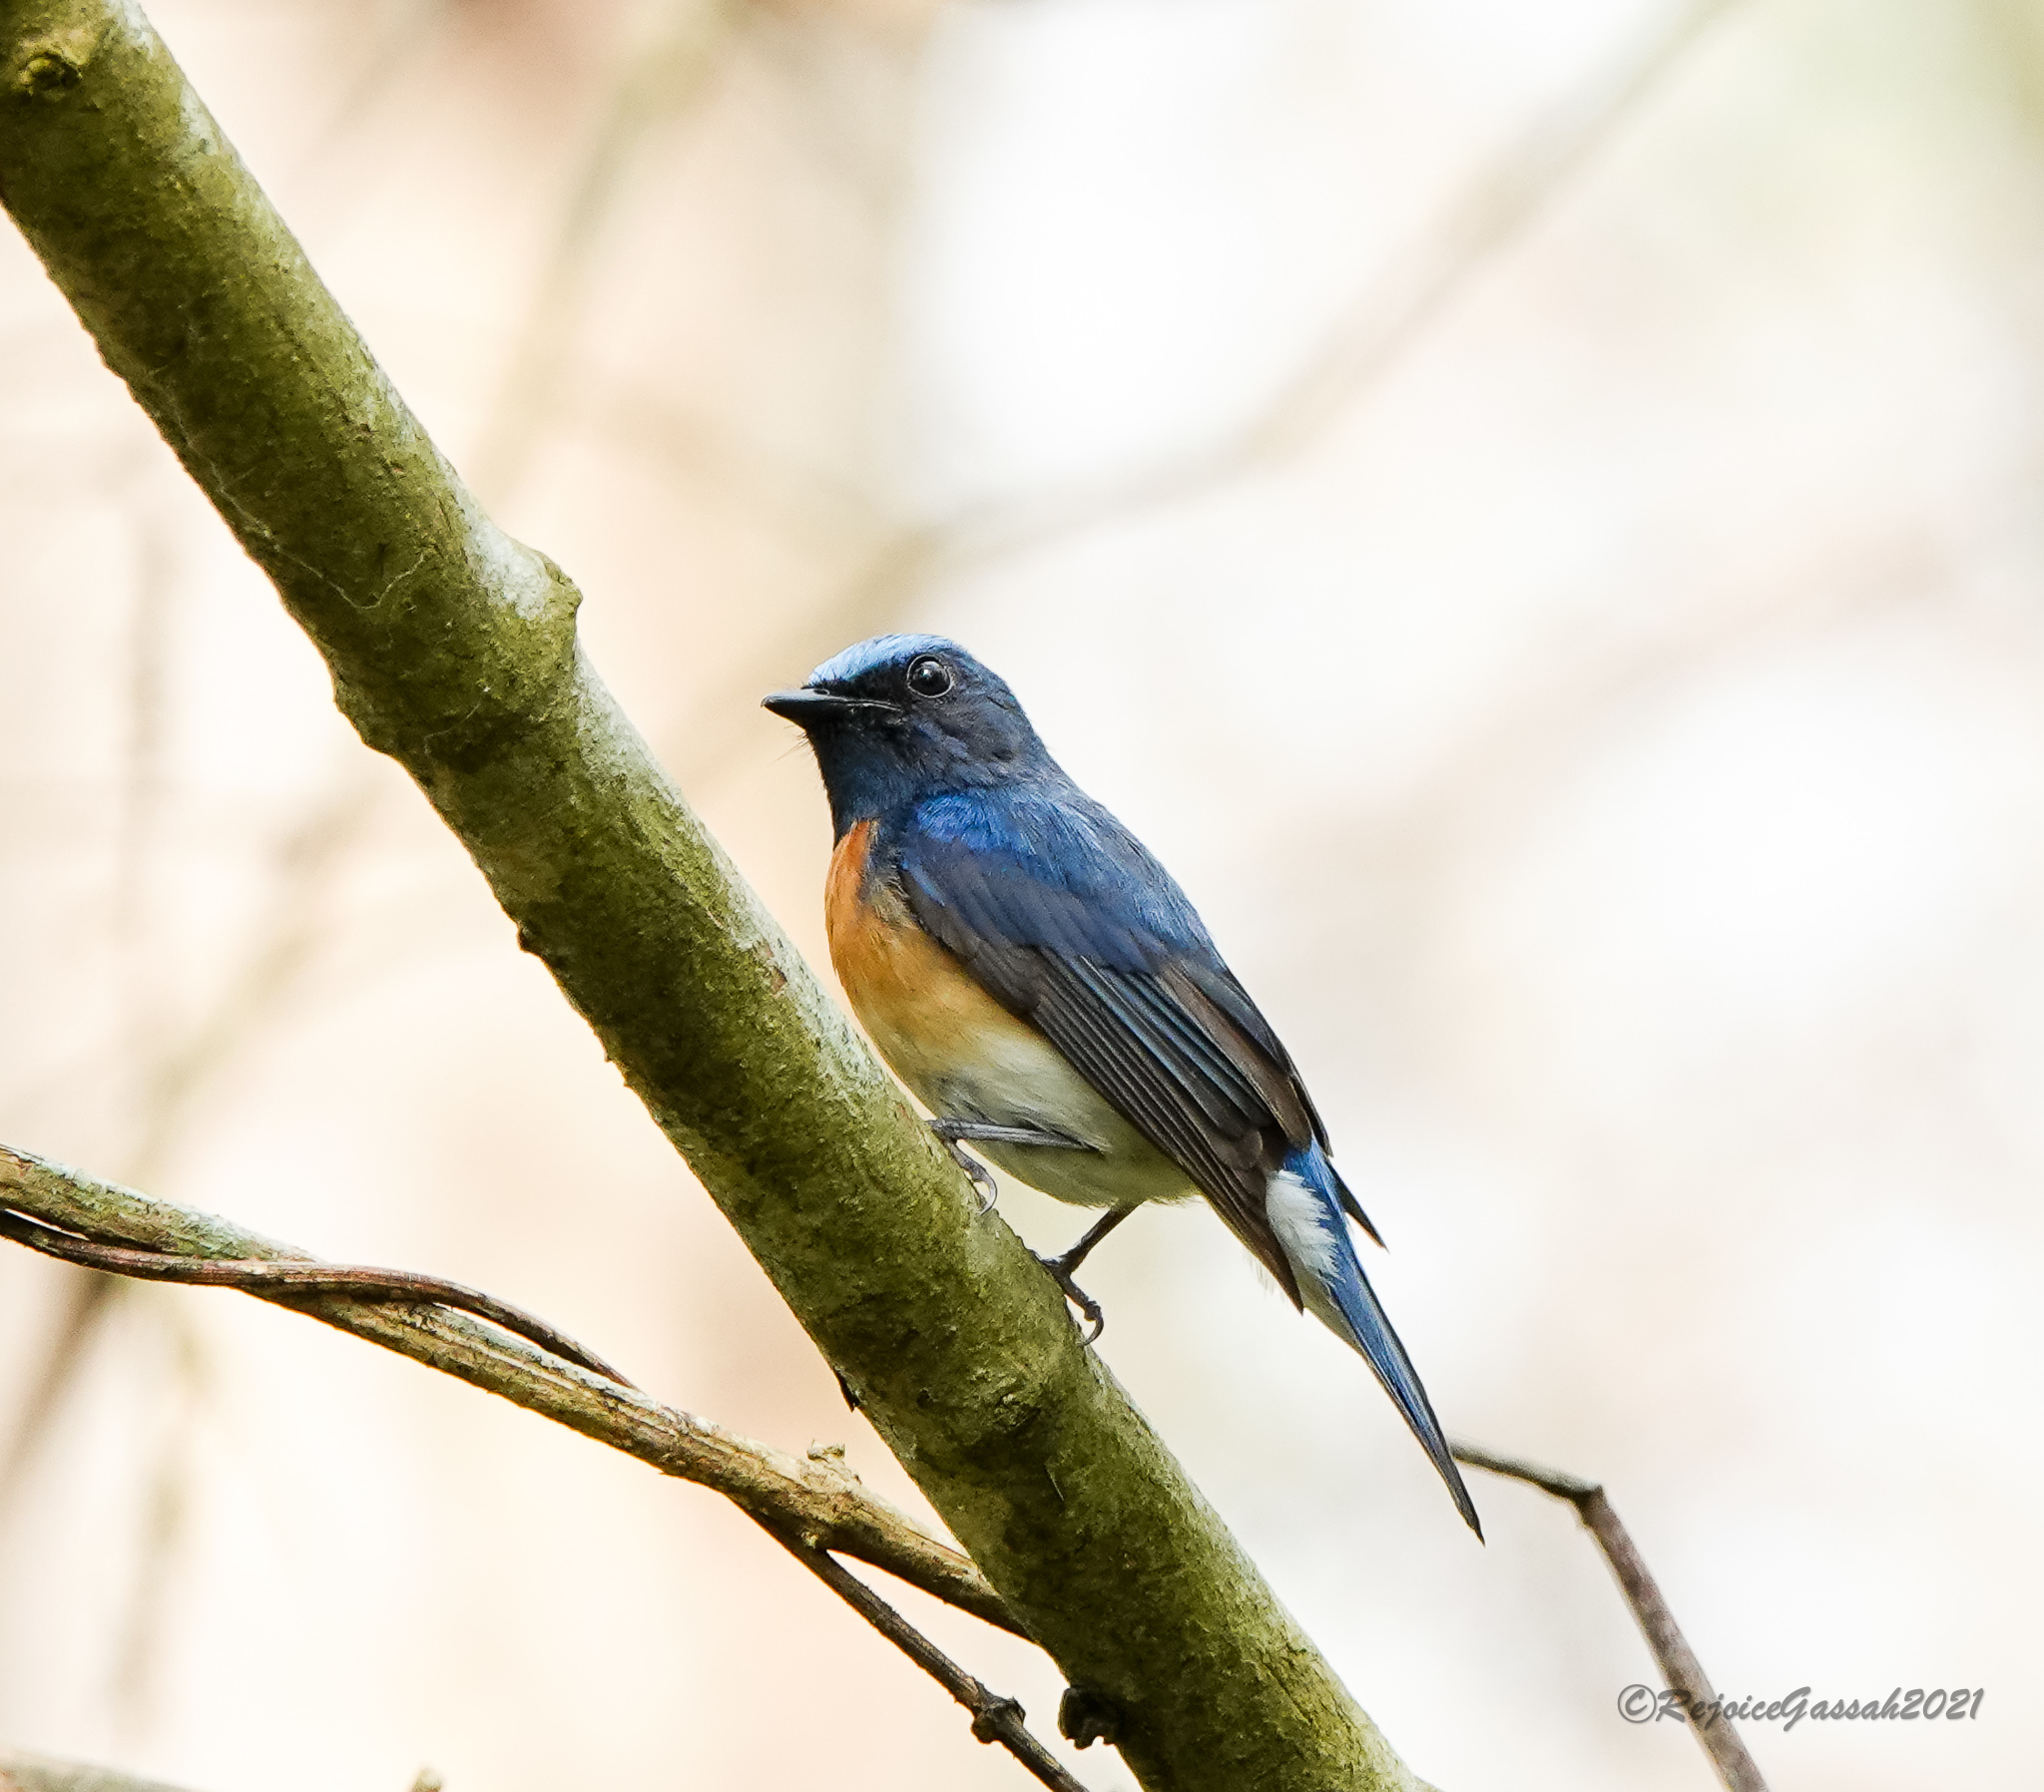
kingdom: Animalia
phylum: Chordata
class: Aves
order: Passeriformes
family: Muscicapidae
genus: Cyornis
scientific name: Cyornis rubeculoides
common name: Blue-throated blue flycatcher
